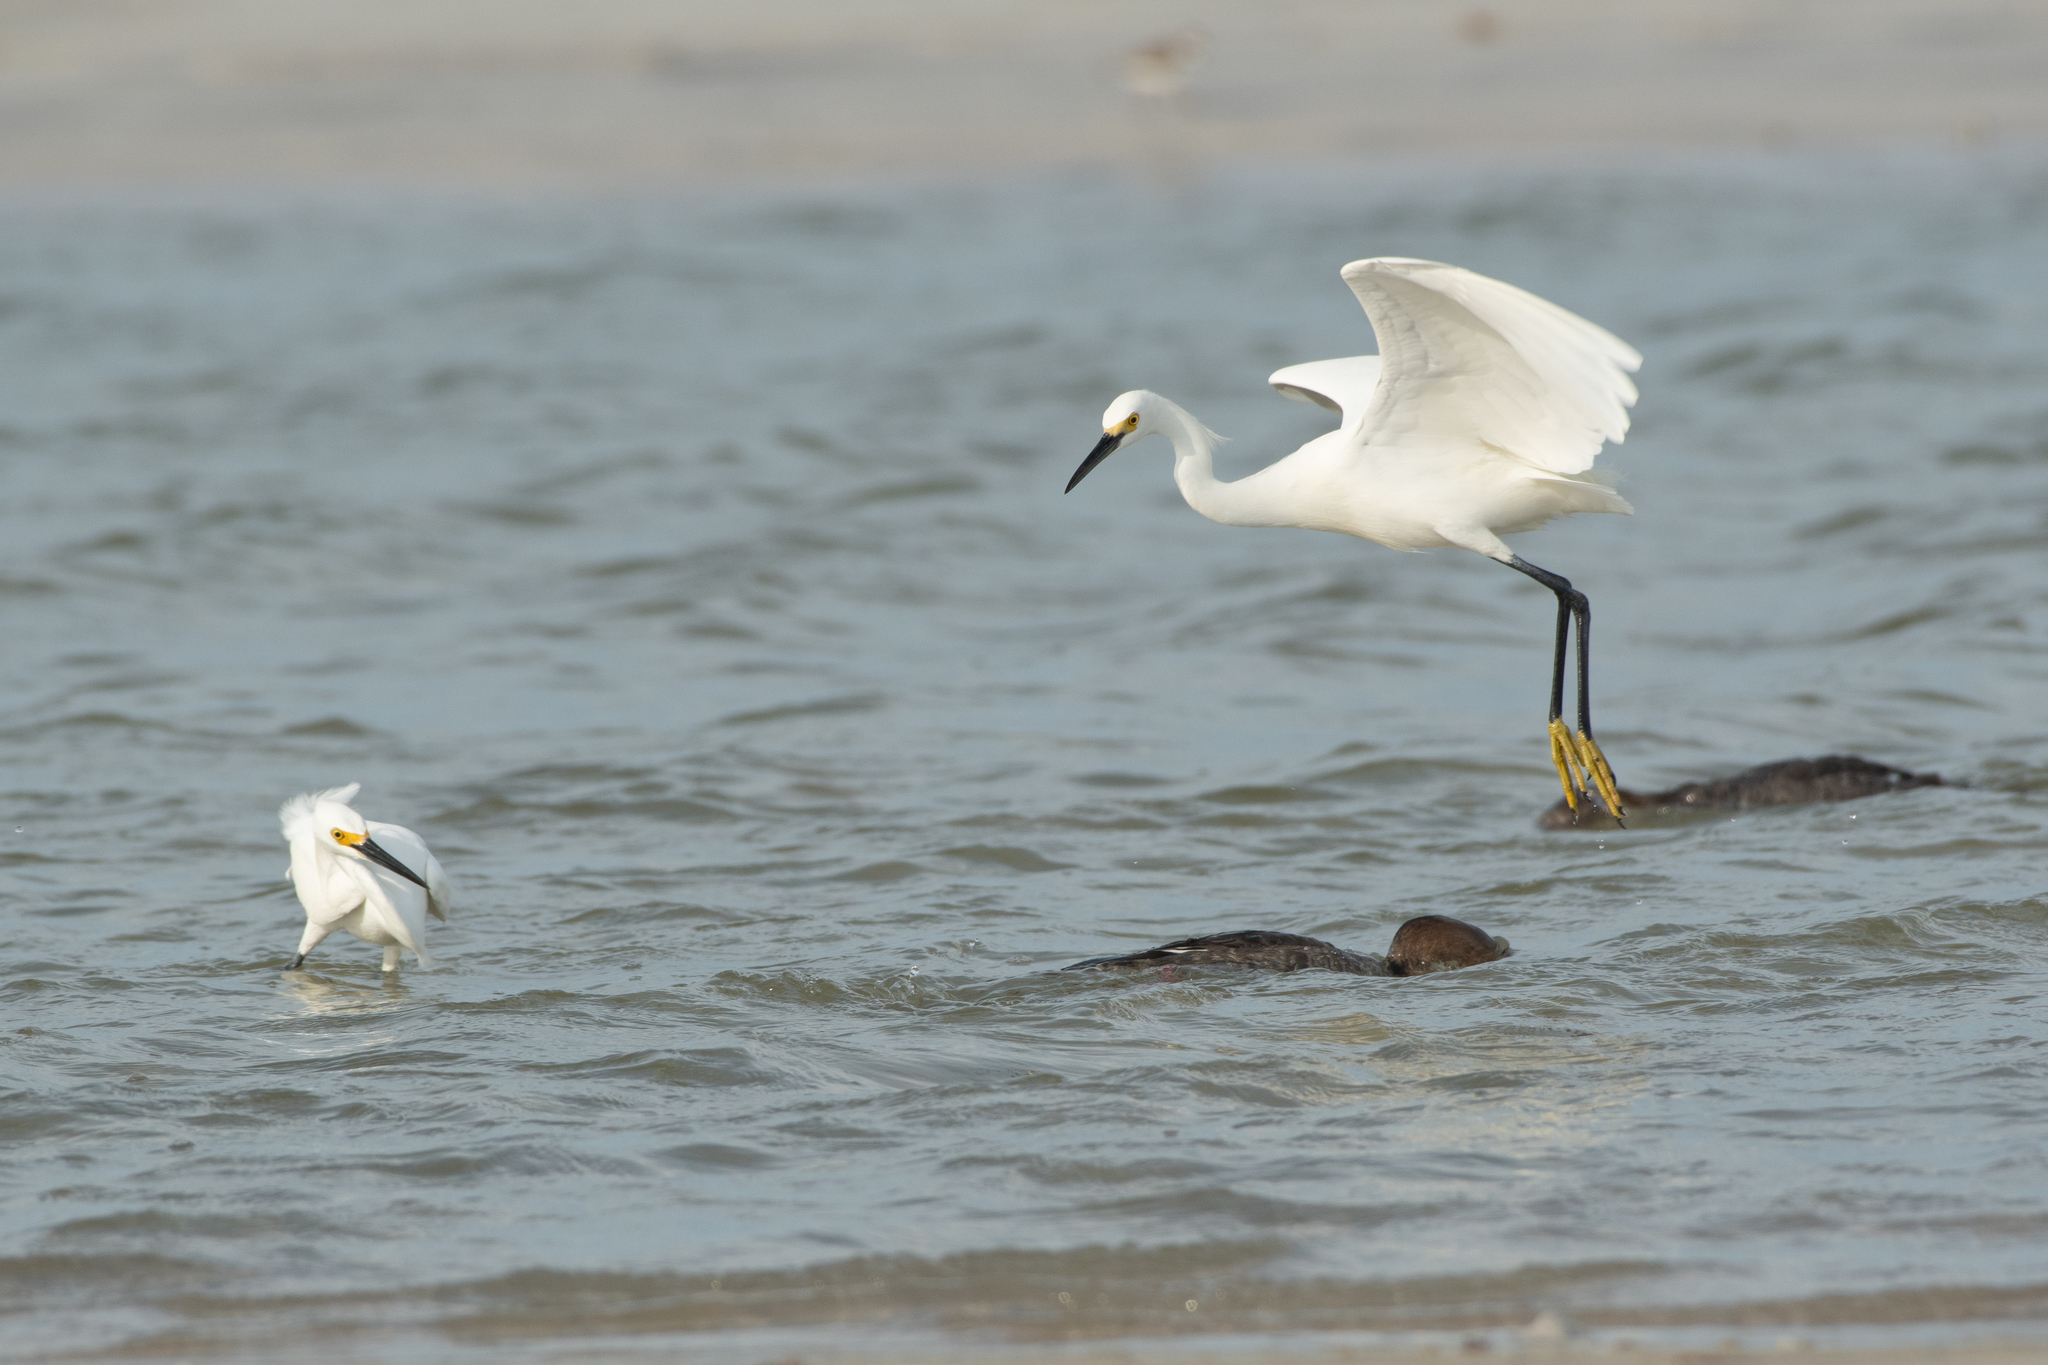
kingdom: Animalia
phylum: Chordata
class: Aves
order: Pelecaniformes
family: Ardeidae
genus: Egretta
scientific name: Egretta thula
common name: Snowy egret
